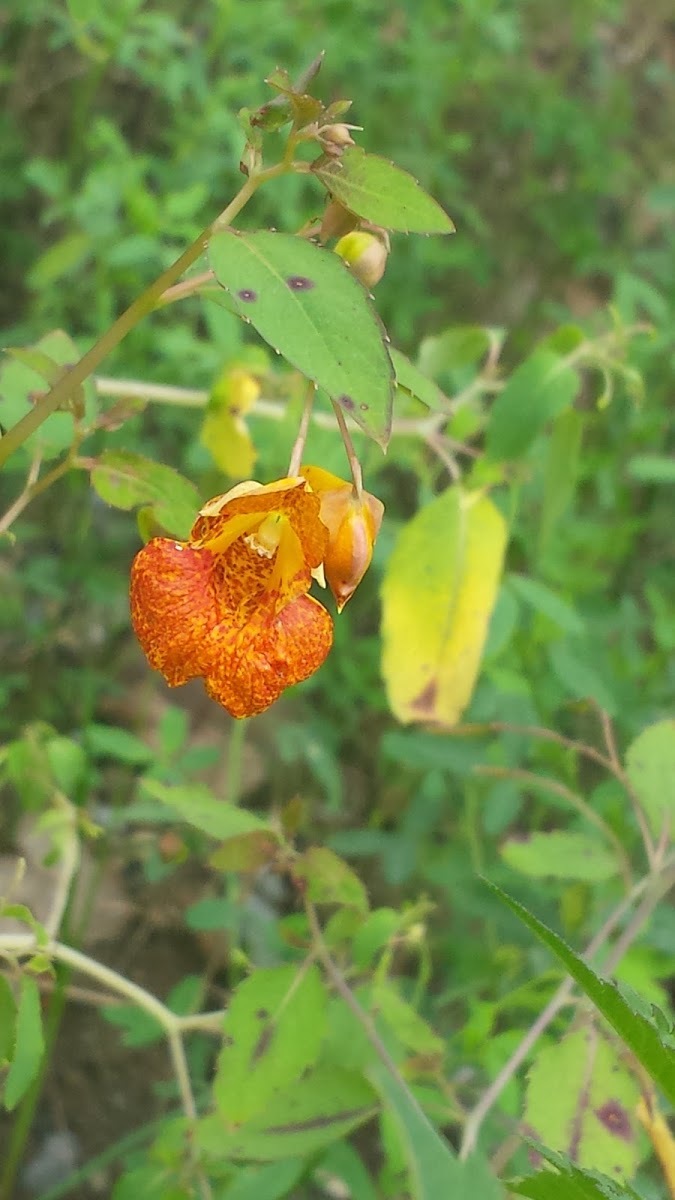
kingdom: Plantae
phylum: Tracheophyta
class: Magnoliopsida
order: Ericales
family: Balsaminaceae
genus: Impatiens
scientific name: Impatiens capensis
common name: Orange balsam
